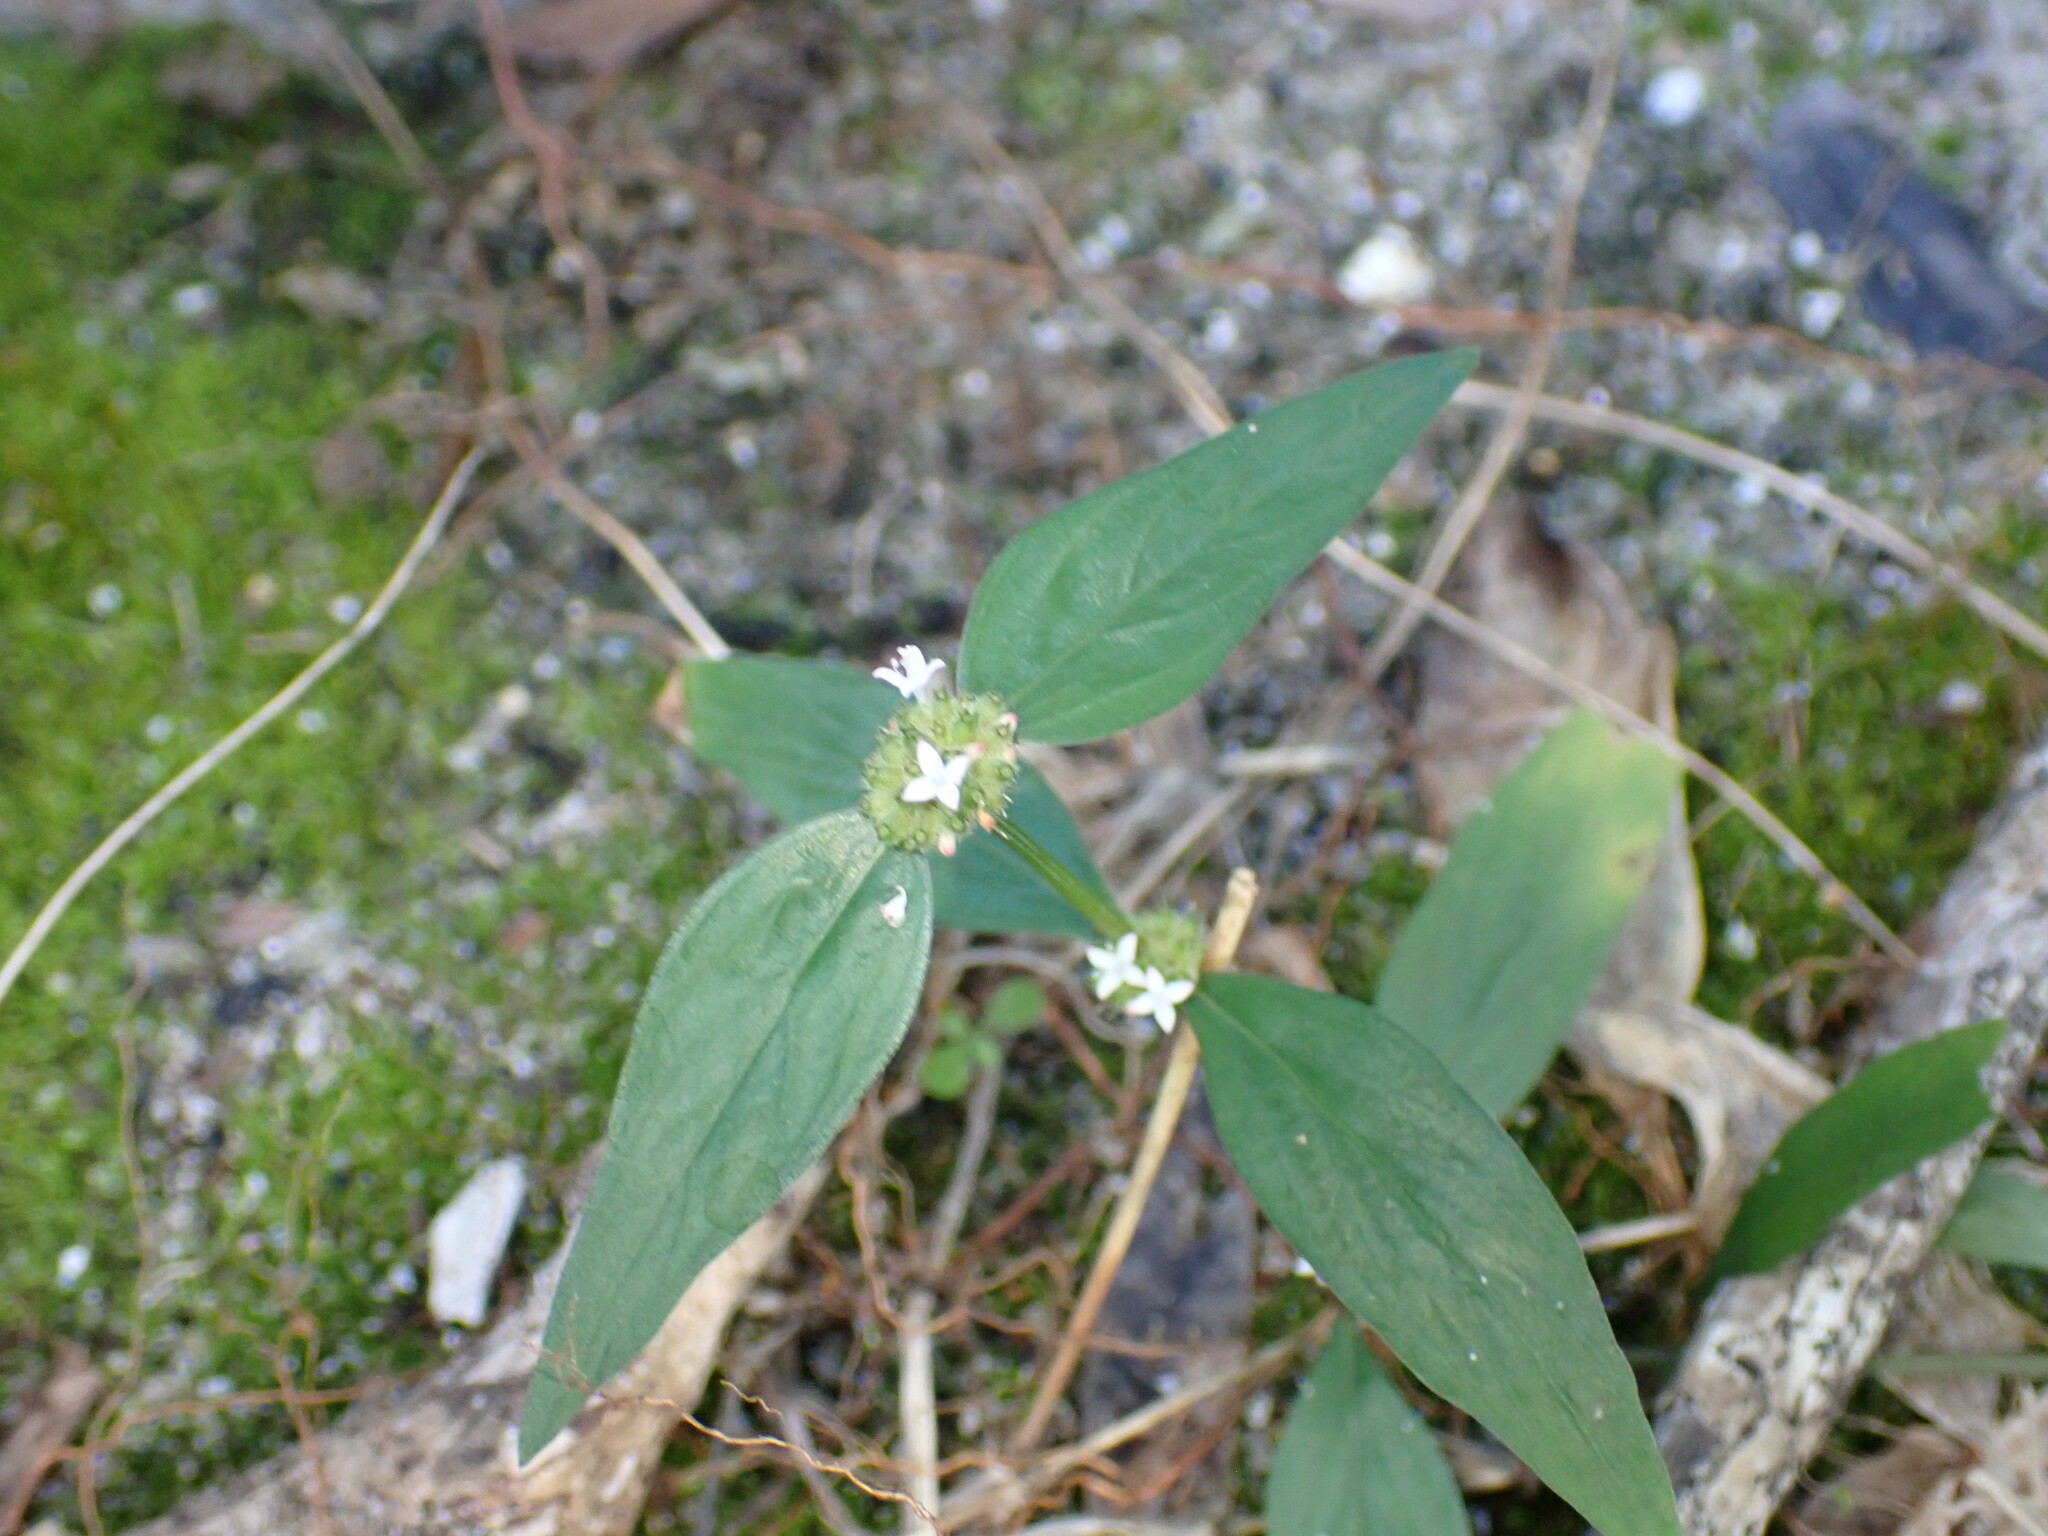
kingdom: Plantae
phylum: Tracheophyta
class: Magnoliopsida
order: Gentianales
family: Rubiaceae
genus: Spermacoce
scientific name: Spermacoce remota
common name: Woodland false buttonweed
